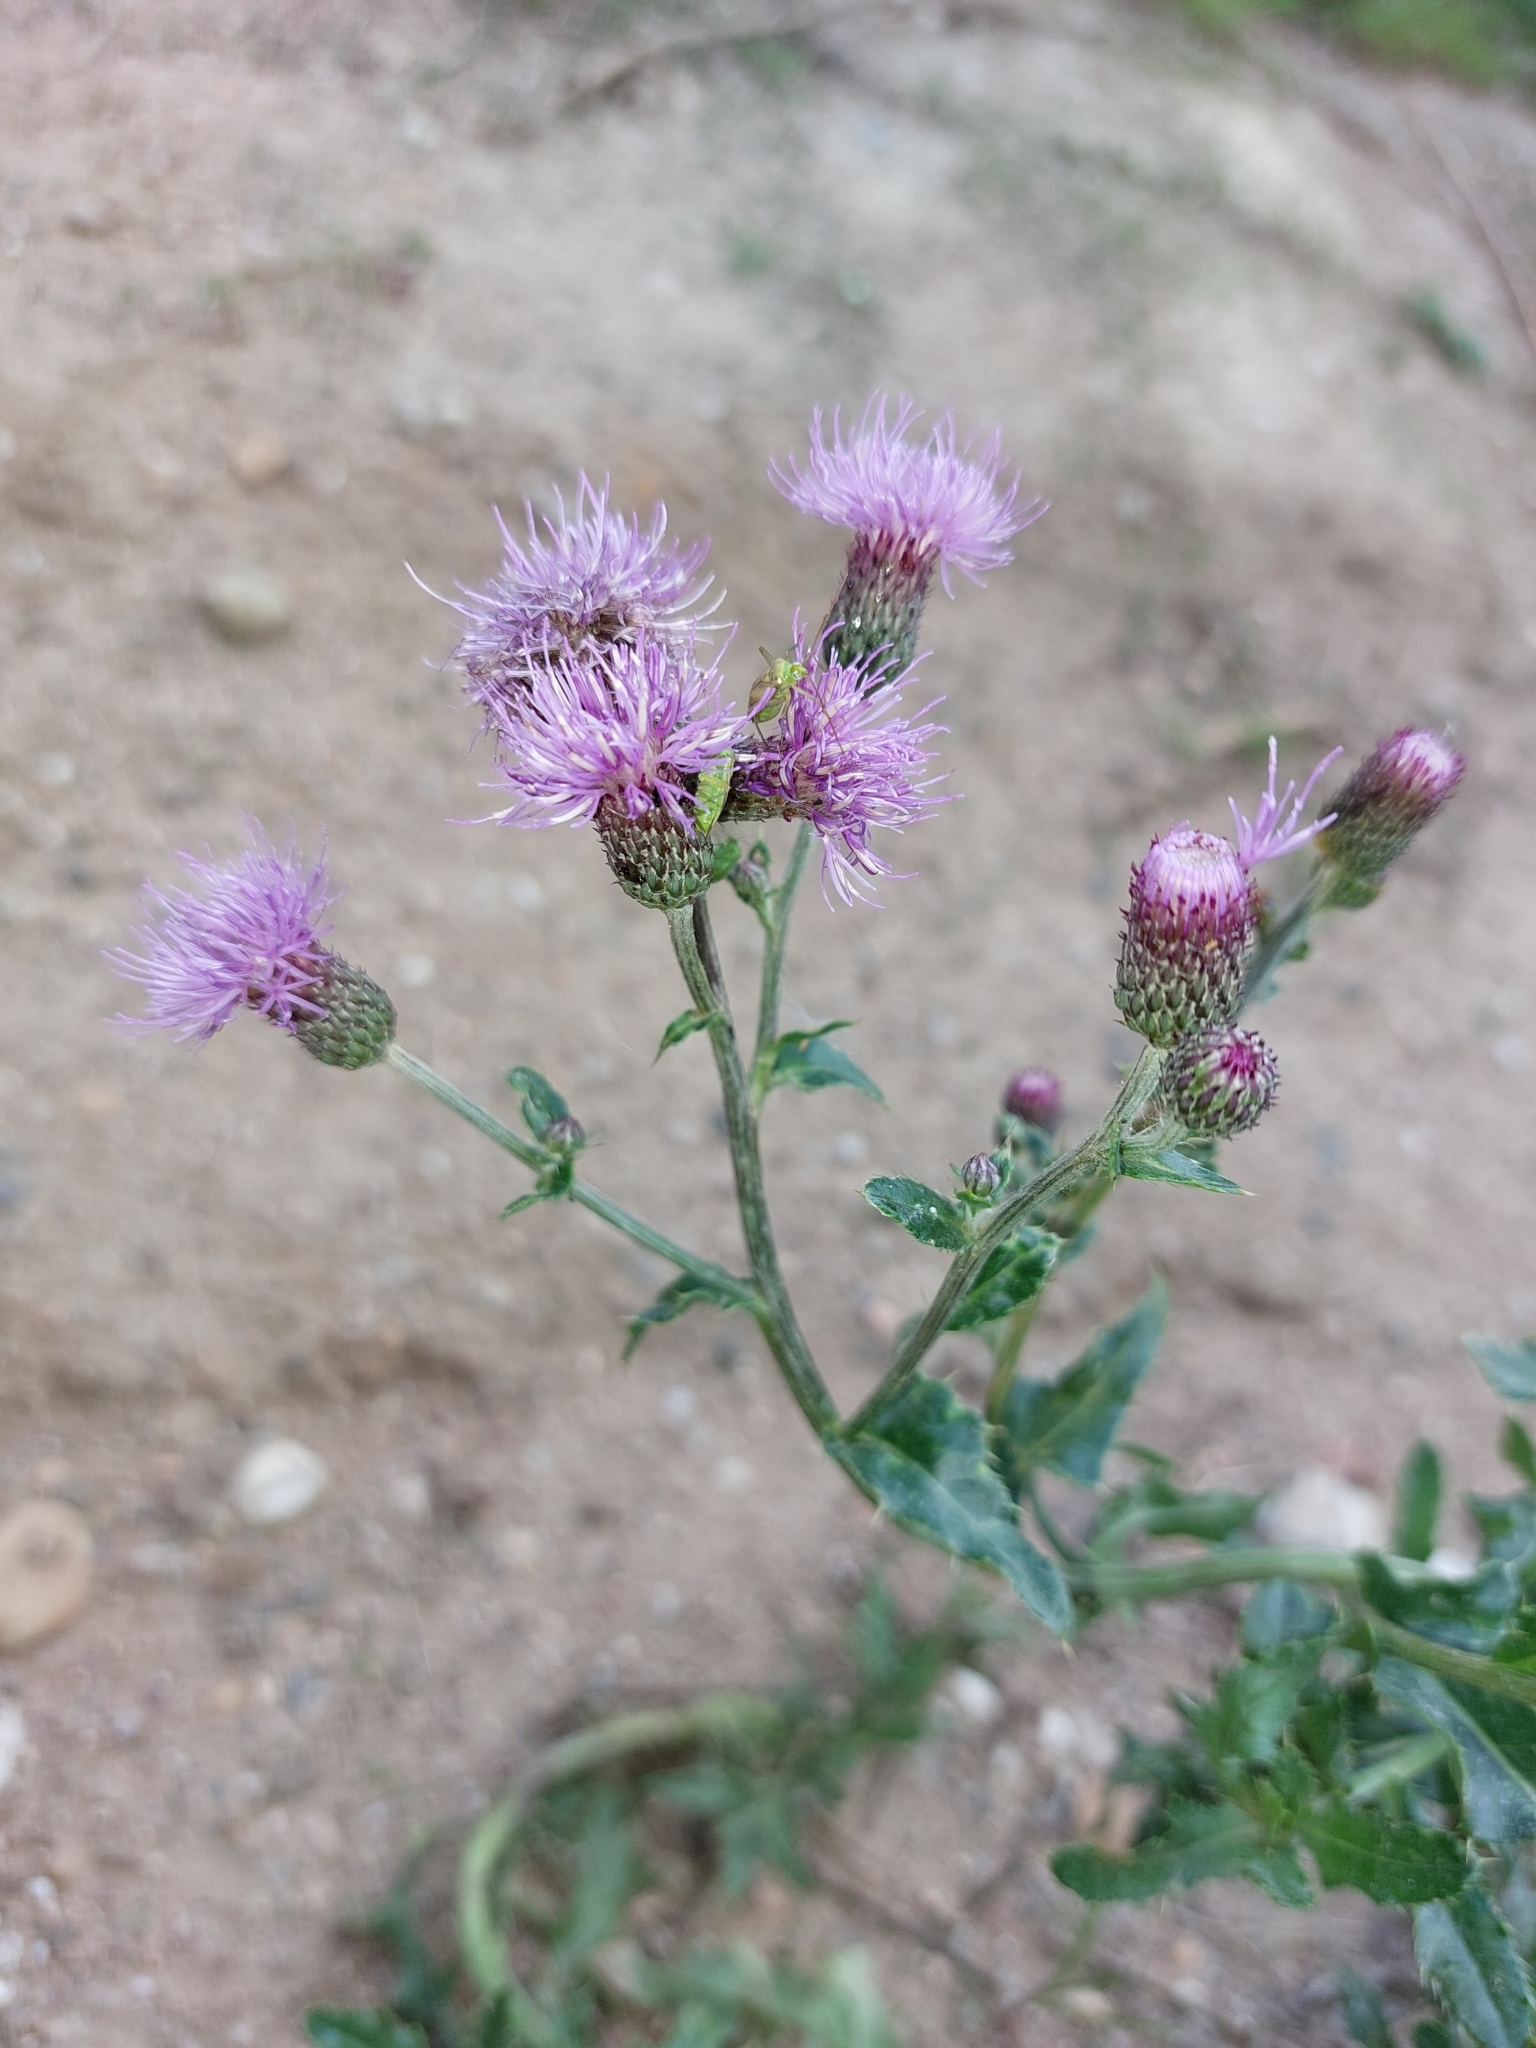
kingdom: Plantae
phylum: Tracheophyta
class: Magnoliopsida
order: Asterales
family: Asteraceae
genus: Cirsium
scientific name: Cirsium arvense
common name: Creeping thistle
